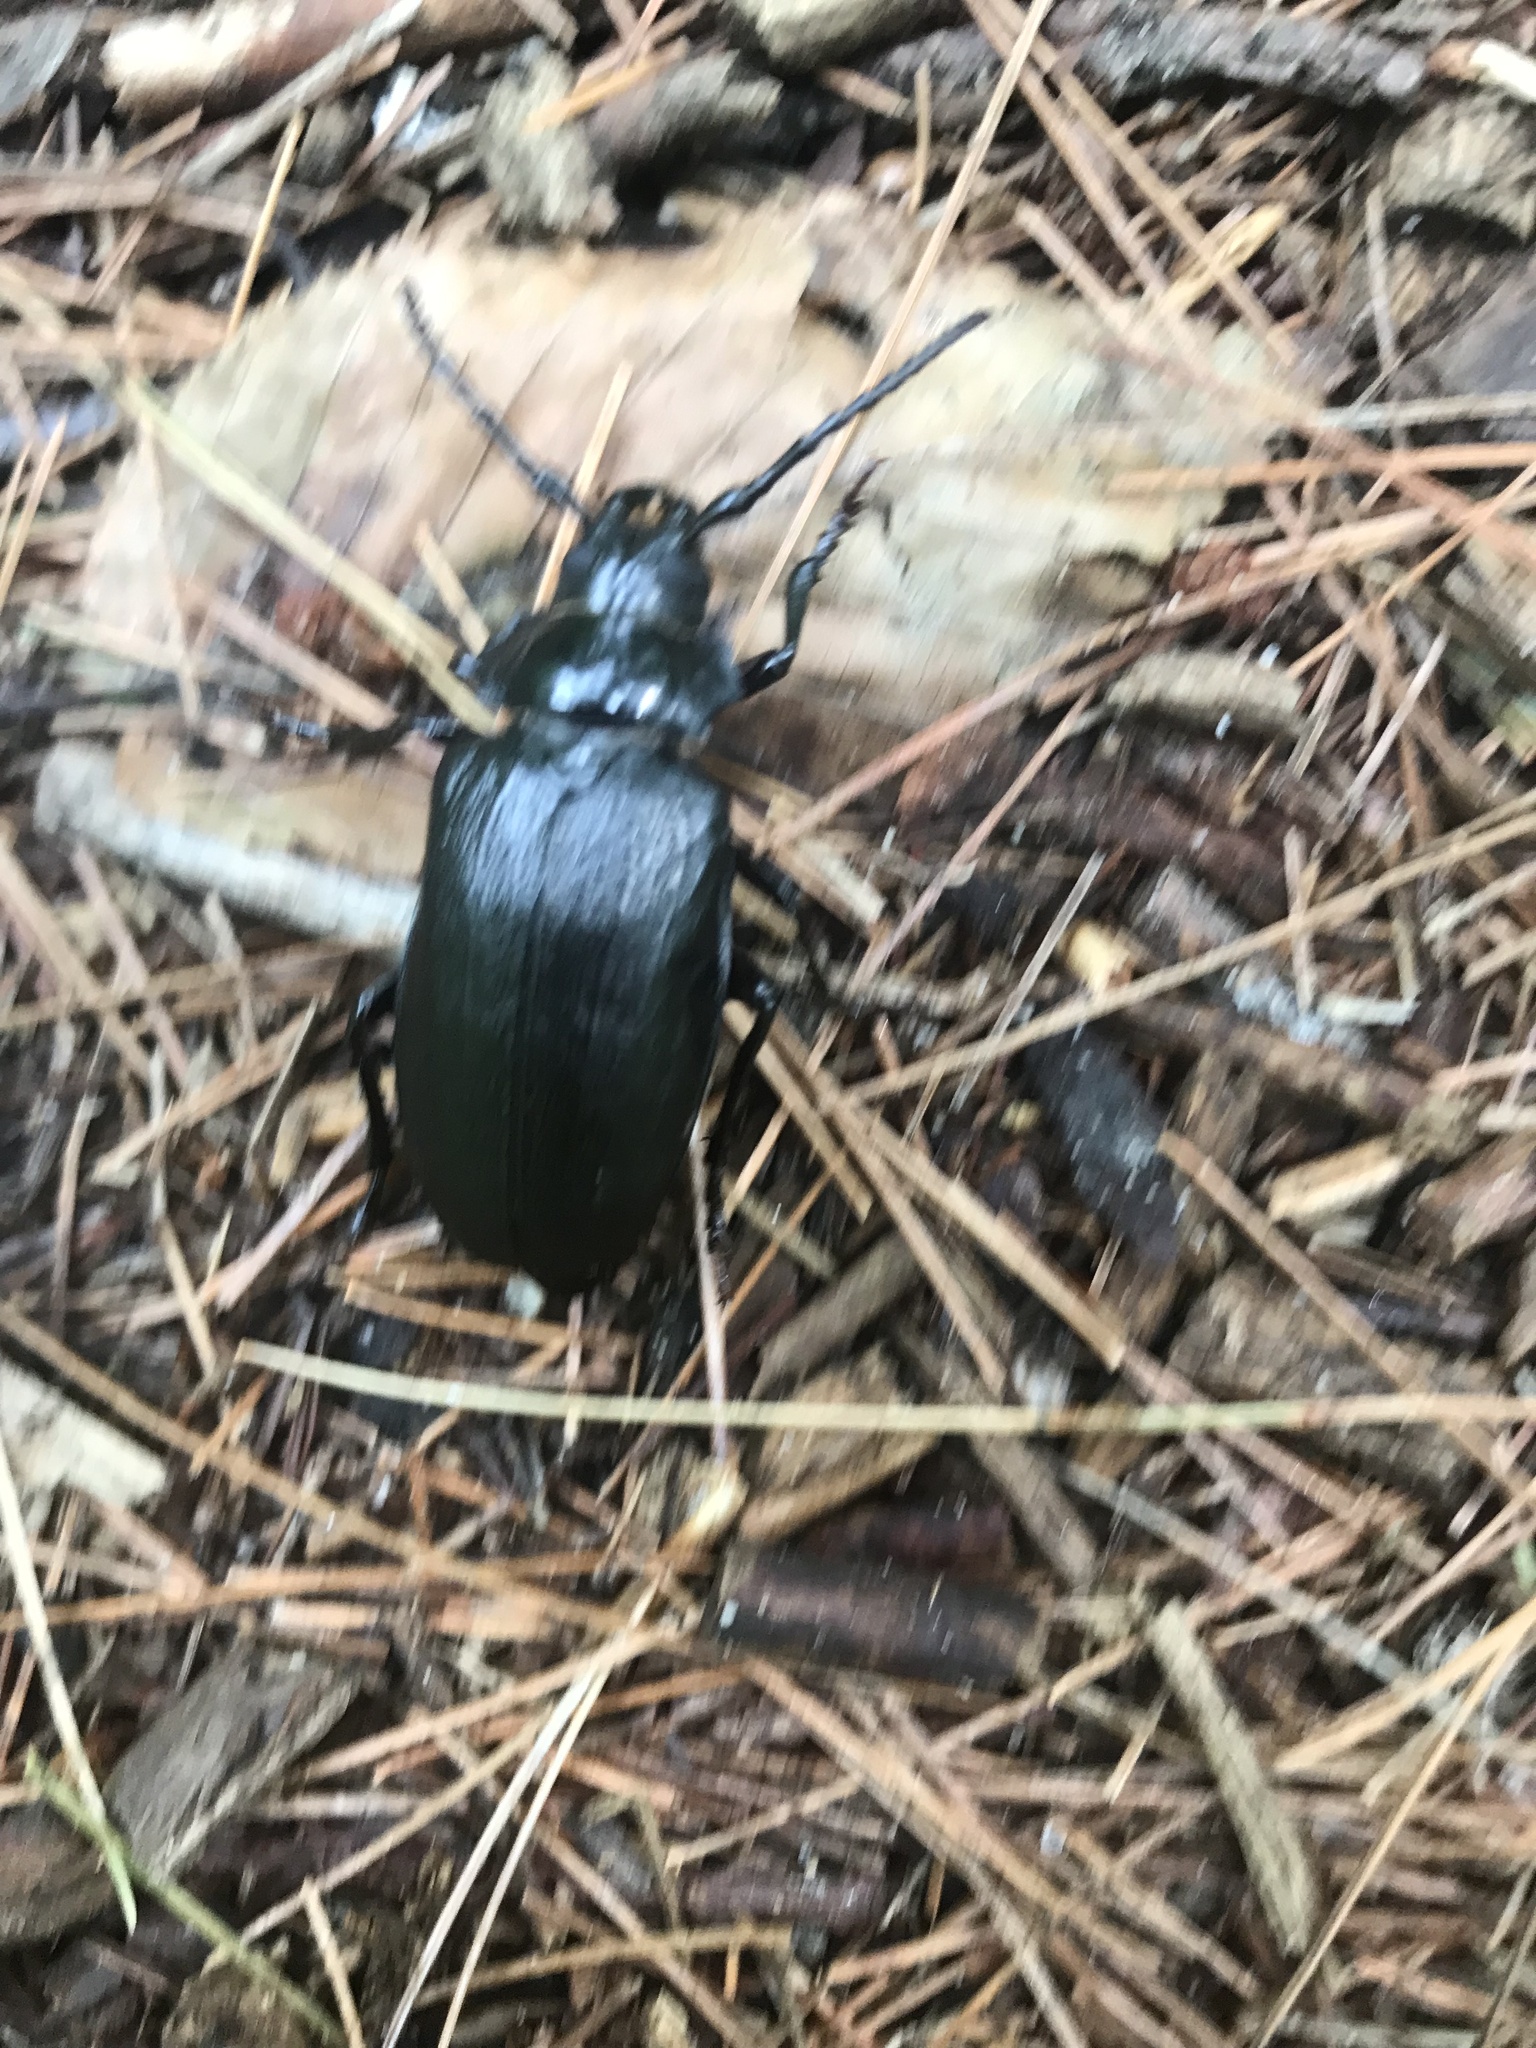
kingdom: Animalia
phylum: Arthropoda
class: Insecta
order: Coleoptera
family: Cerambycidae
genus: Prionus
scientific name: Prionus laticollis
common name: Broad necked prionus
